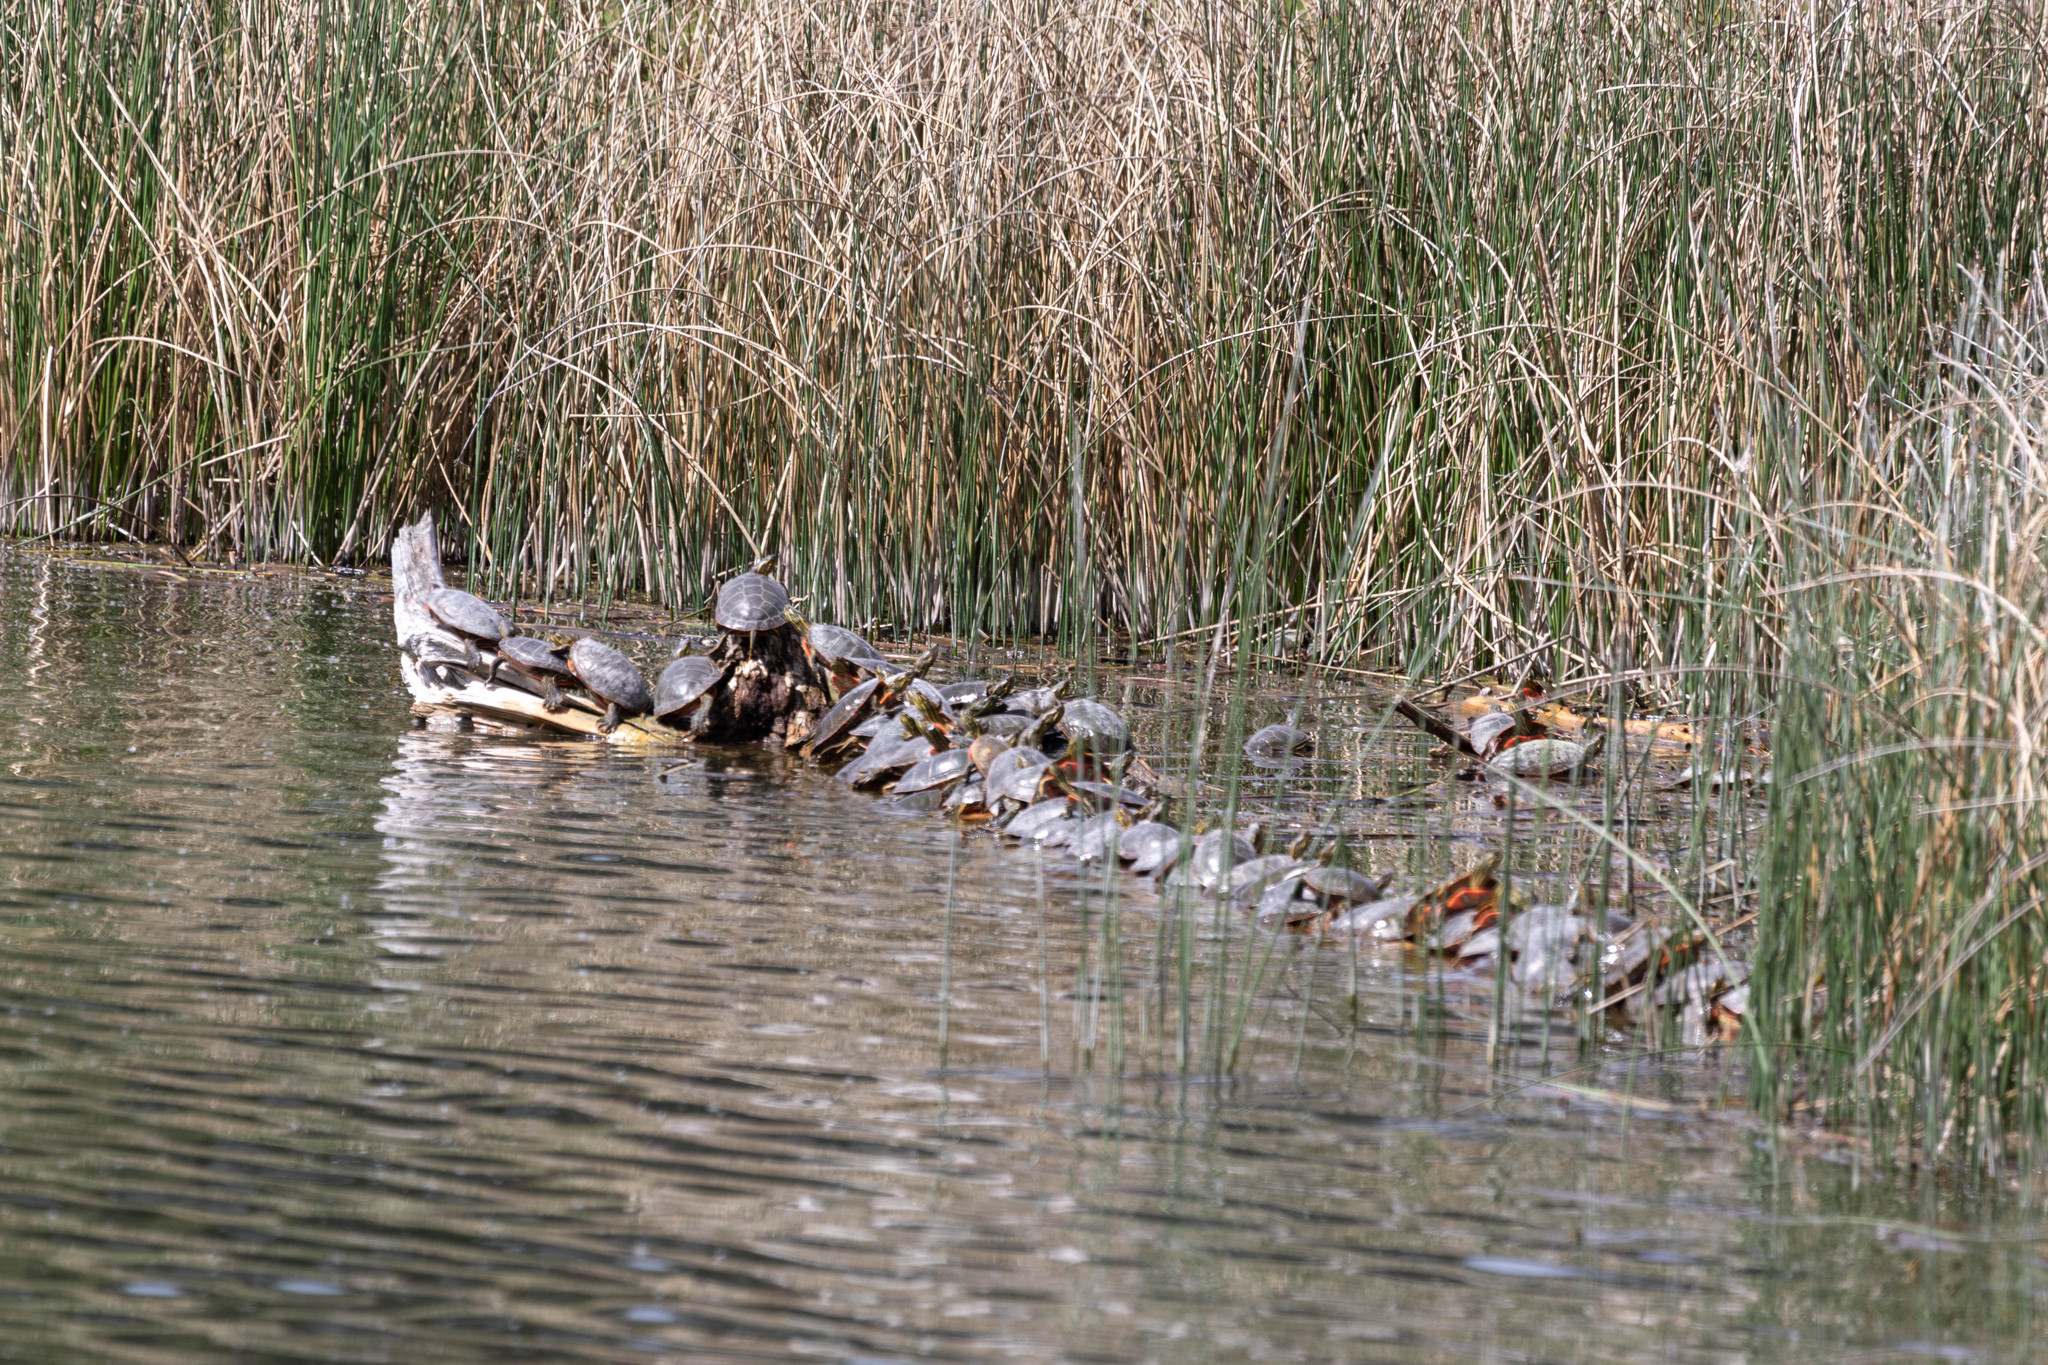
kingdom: Animalia
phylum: Chordata
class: Testudines
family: Emydidae
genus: Chrysemys
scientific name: Chrysemys picta
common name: Painted turtle
